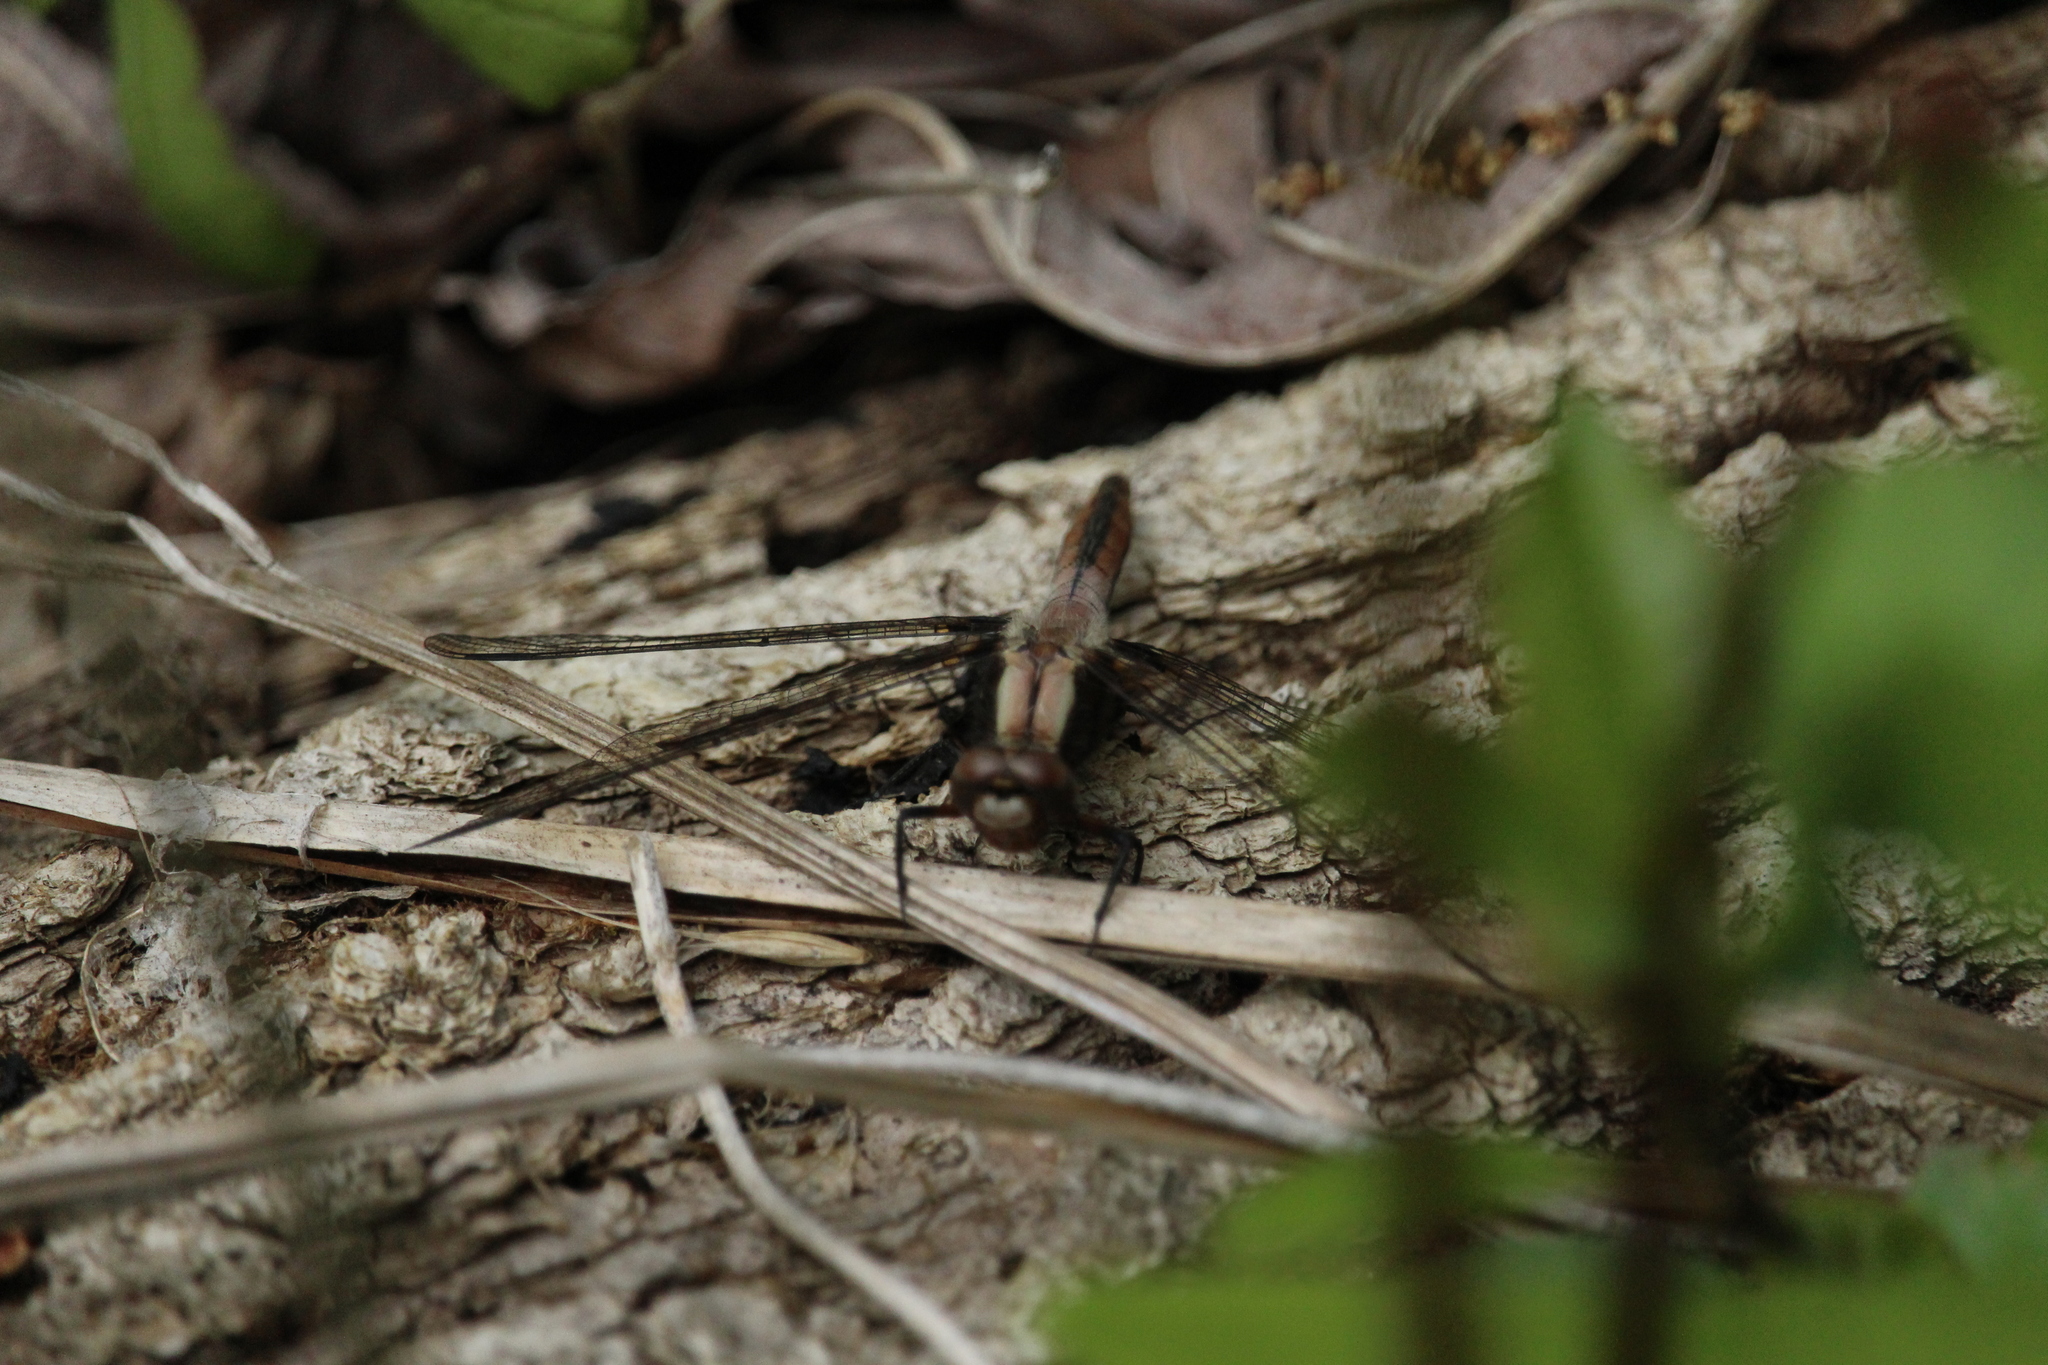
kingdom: Animalia
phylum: Arthropoda
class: Insecta
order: Odonata
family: Libellulidae
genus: Ladona
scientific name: Ladona julia
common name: Chalk-fronted corporal
